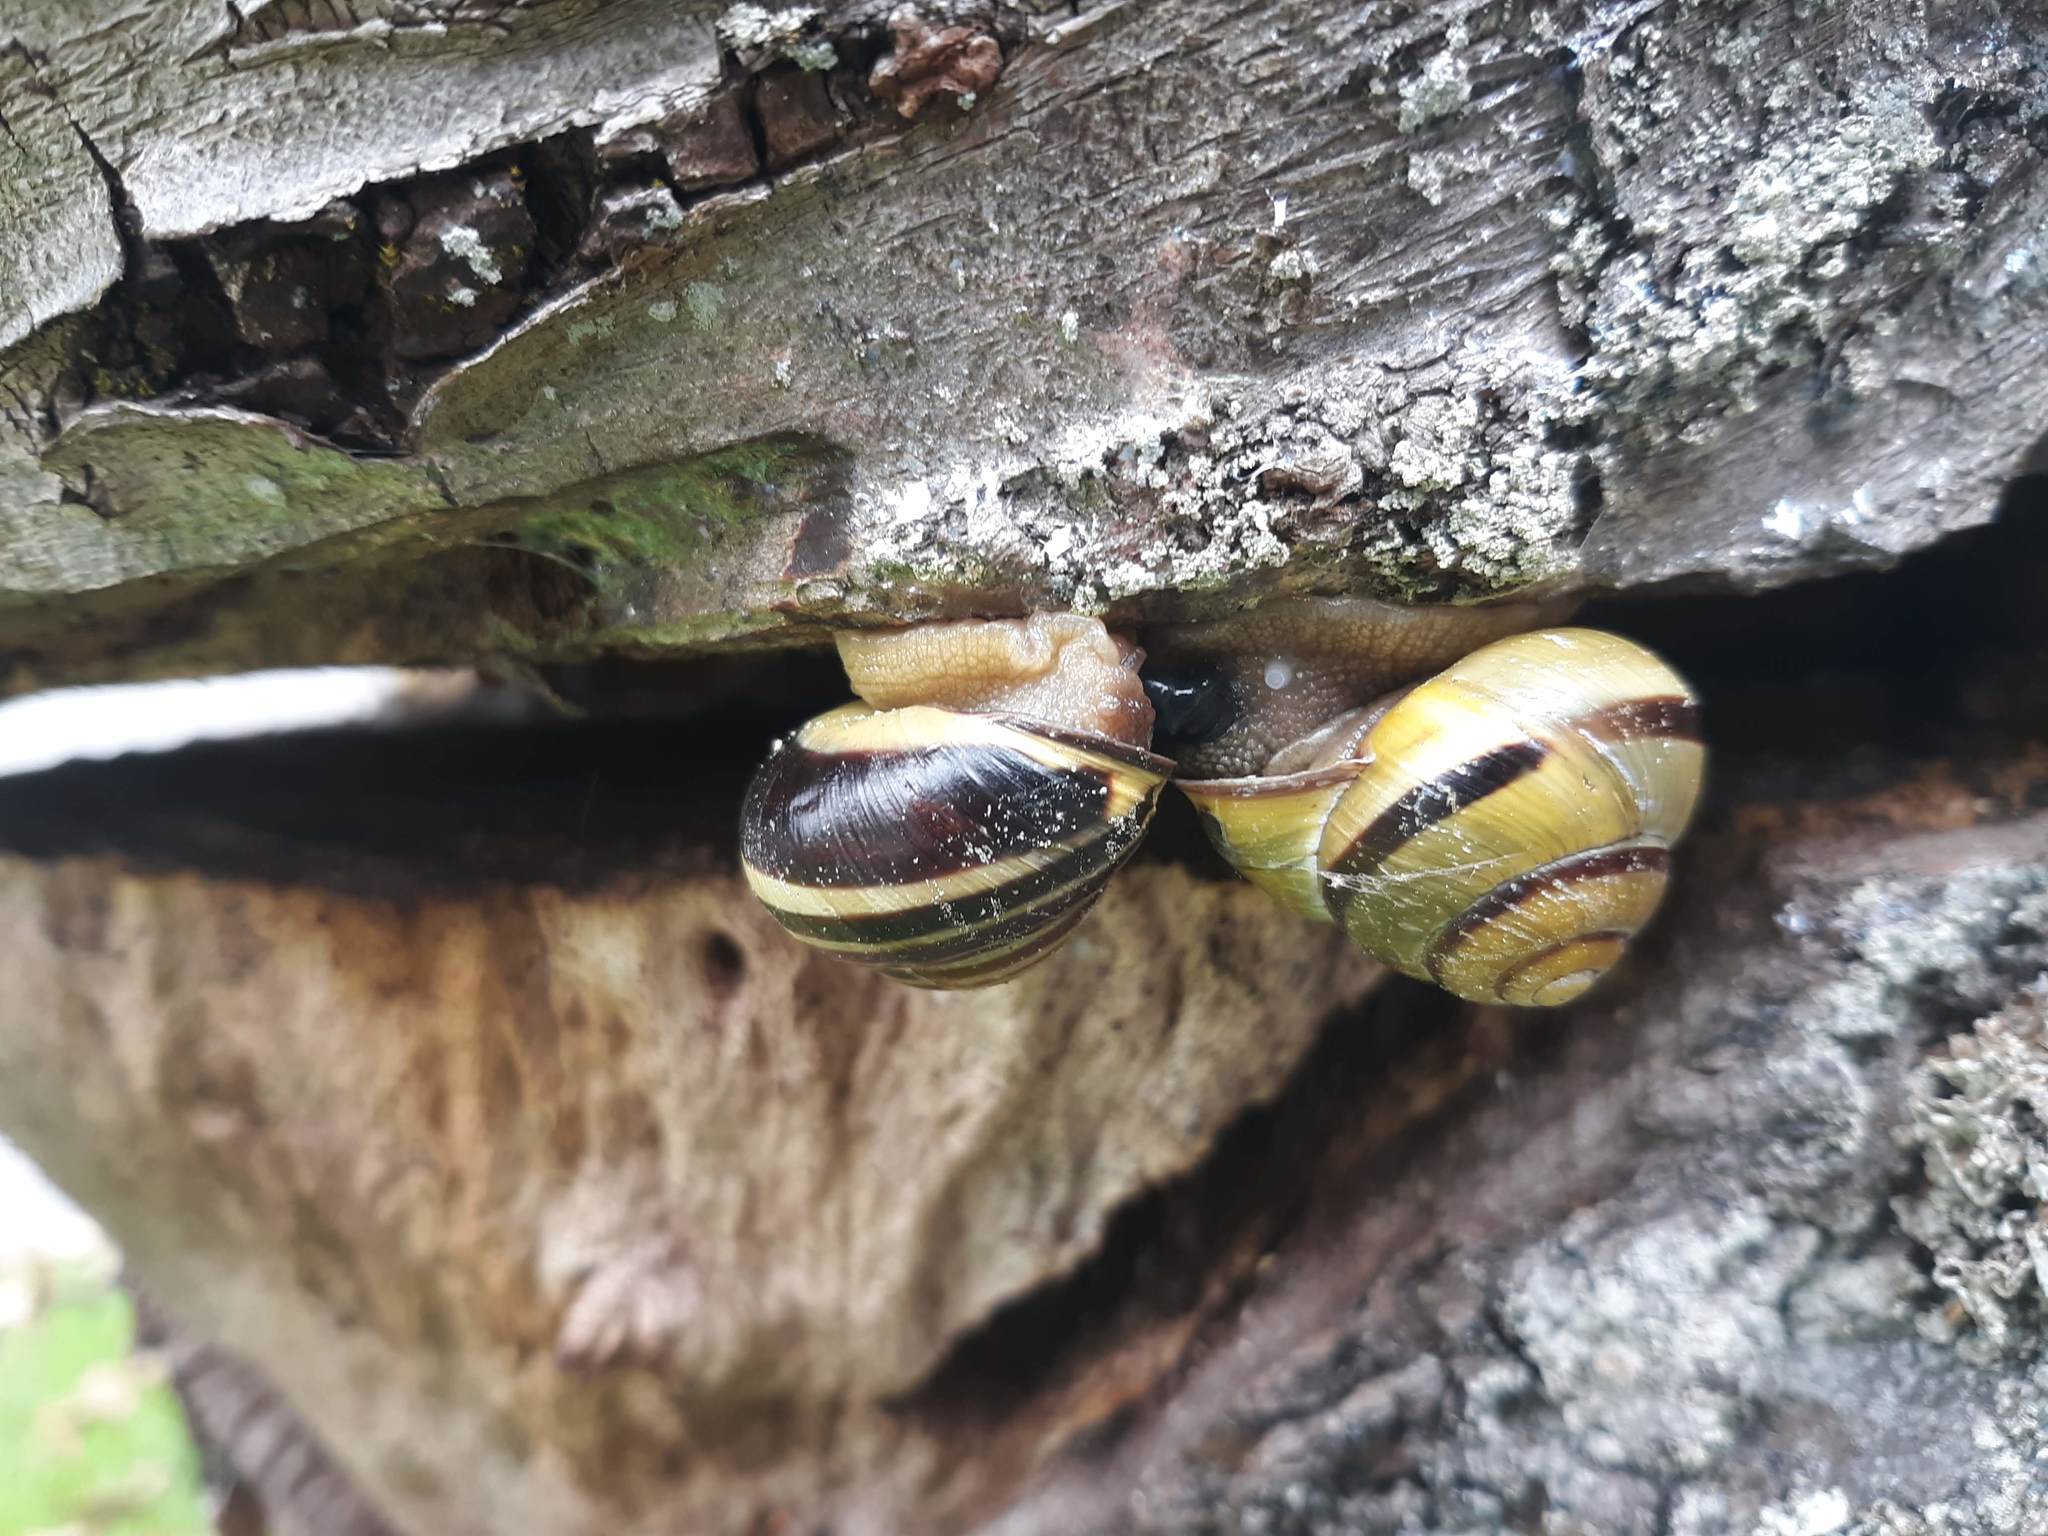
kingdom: Animalia
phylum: Mollusca
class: Gastropoda
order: Stylommatophora
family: Helicidae
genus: Cepaea
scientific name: Cepaea nemoralis
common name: Grovesnail
